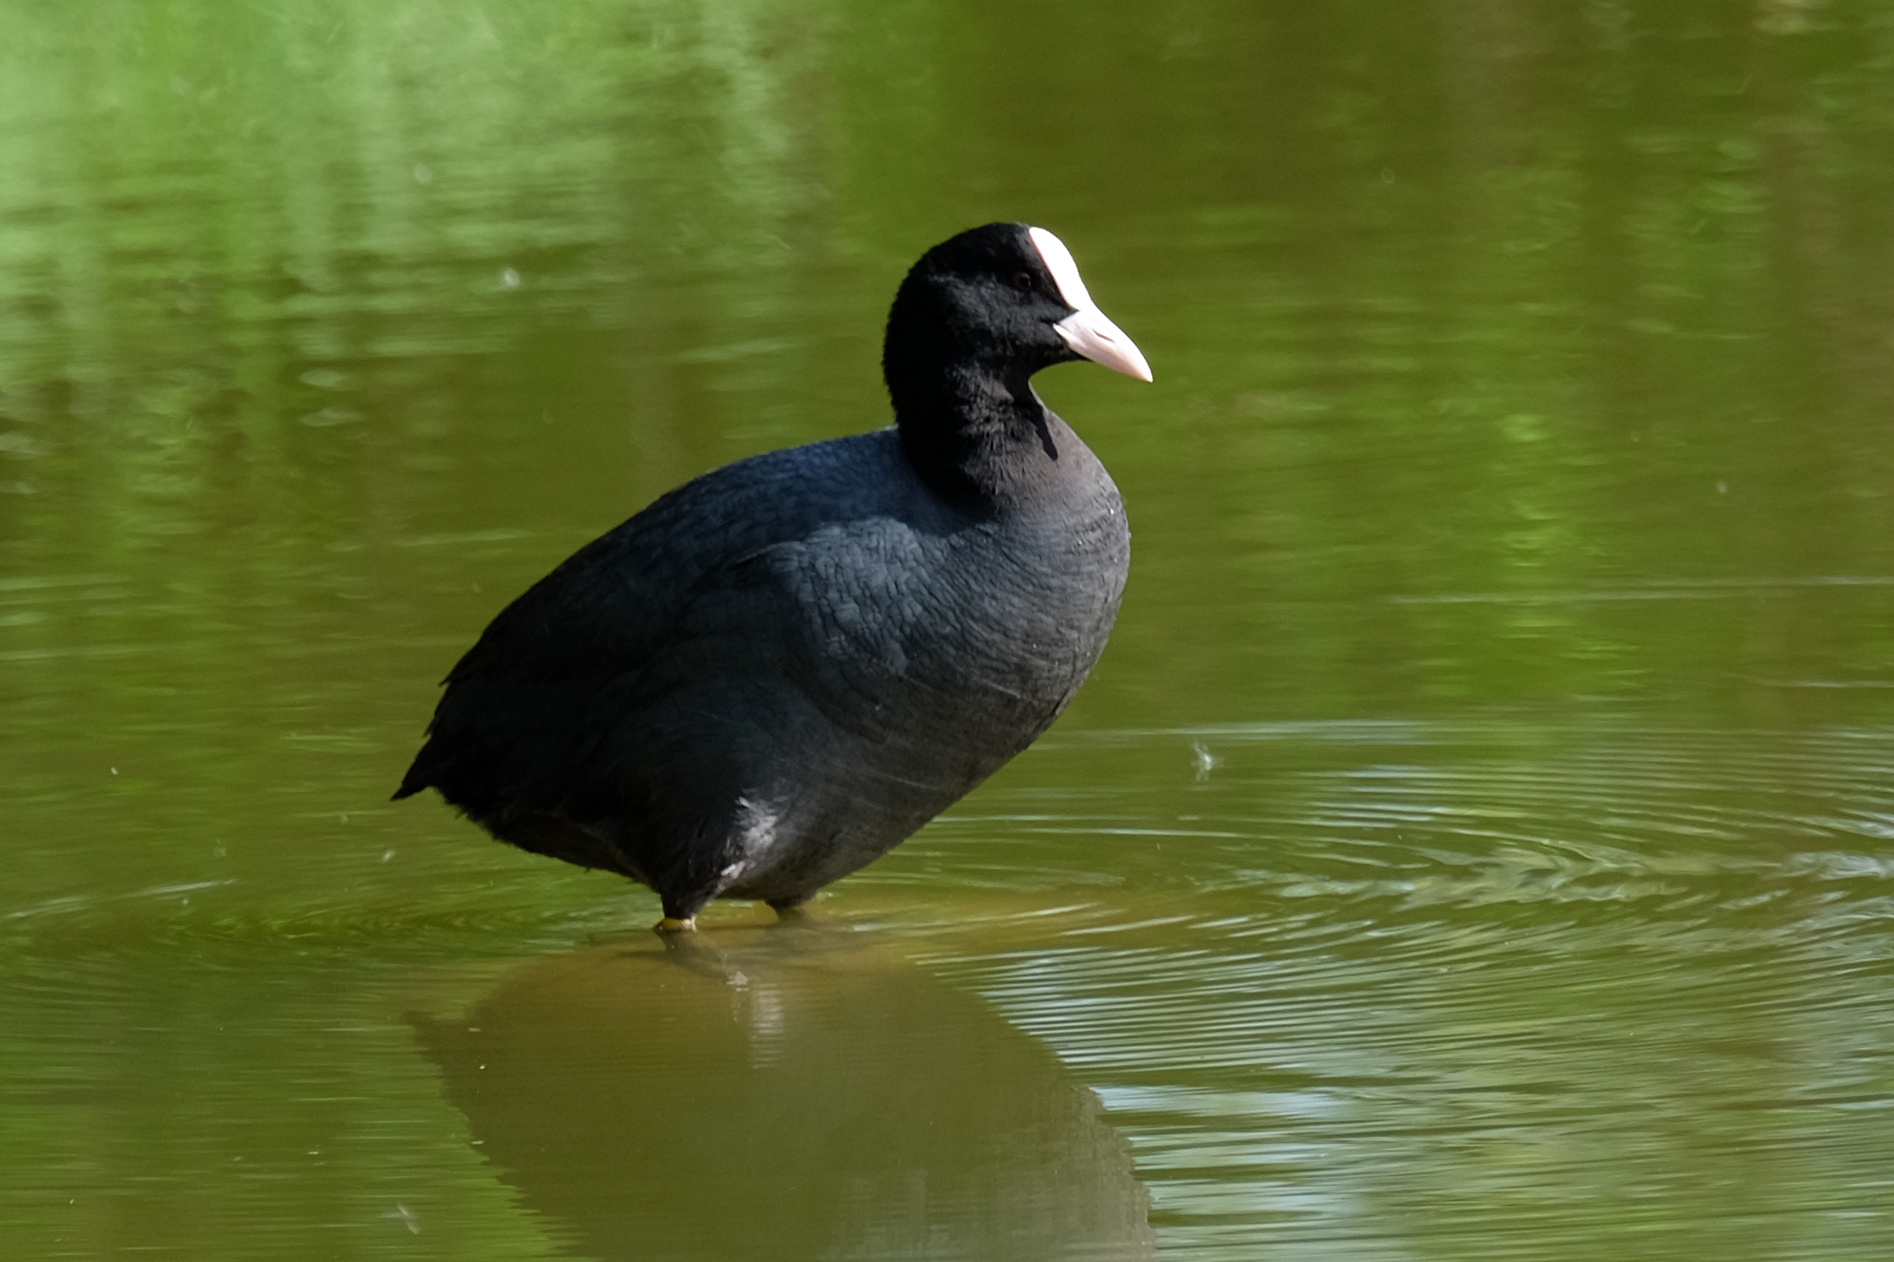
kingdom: Animalia
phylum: Chordata
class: Aves
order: Gruiformes
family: Rallidae
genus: Fulica
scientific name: Fulica atra
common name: Eurasian coot
